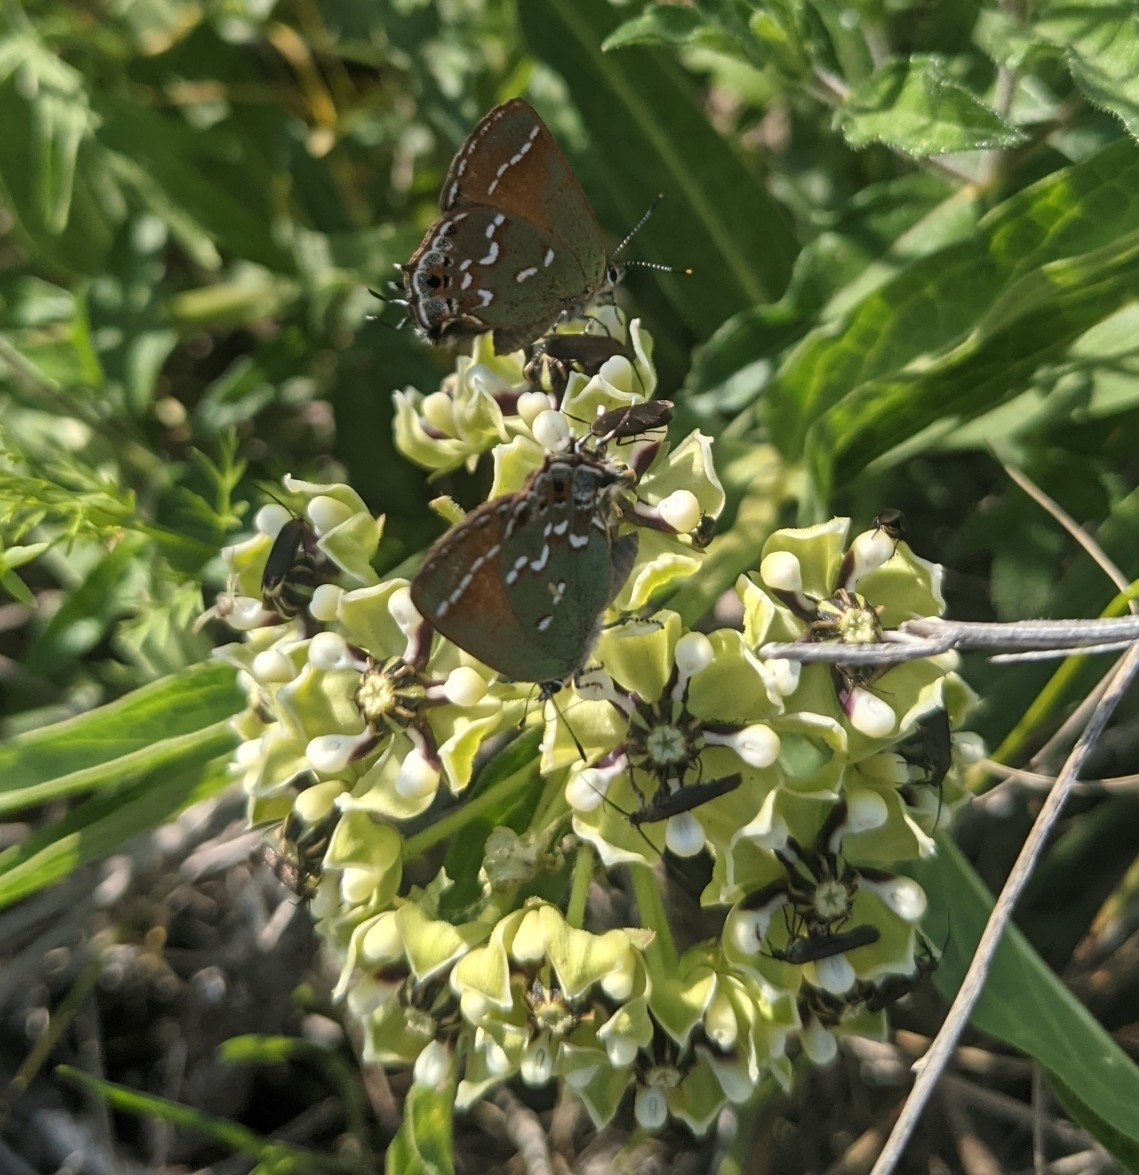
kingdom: Animalia
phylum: Arthropoda
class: Insecta
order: Lepidoptera
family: Lycaenidae
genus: Mitoura
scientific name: Mitoura gryneus
